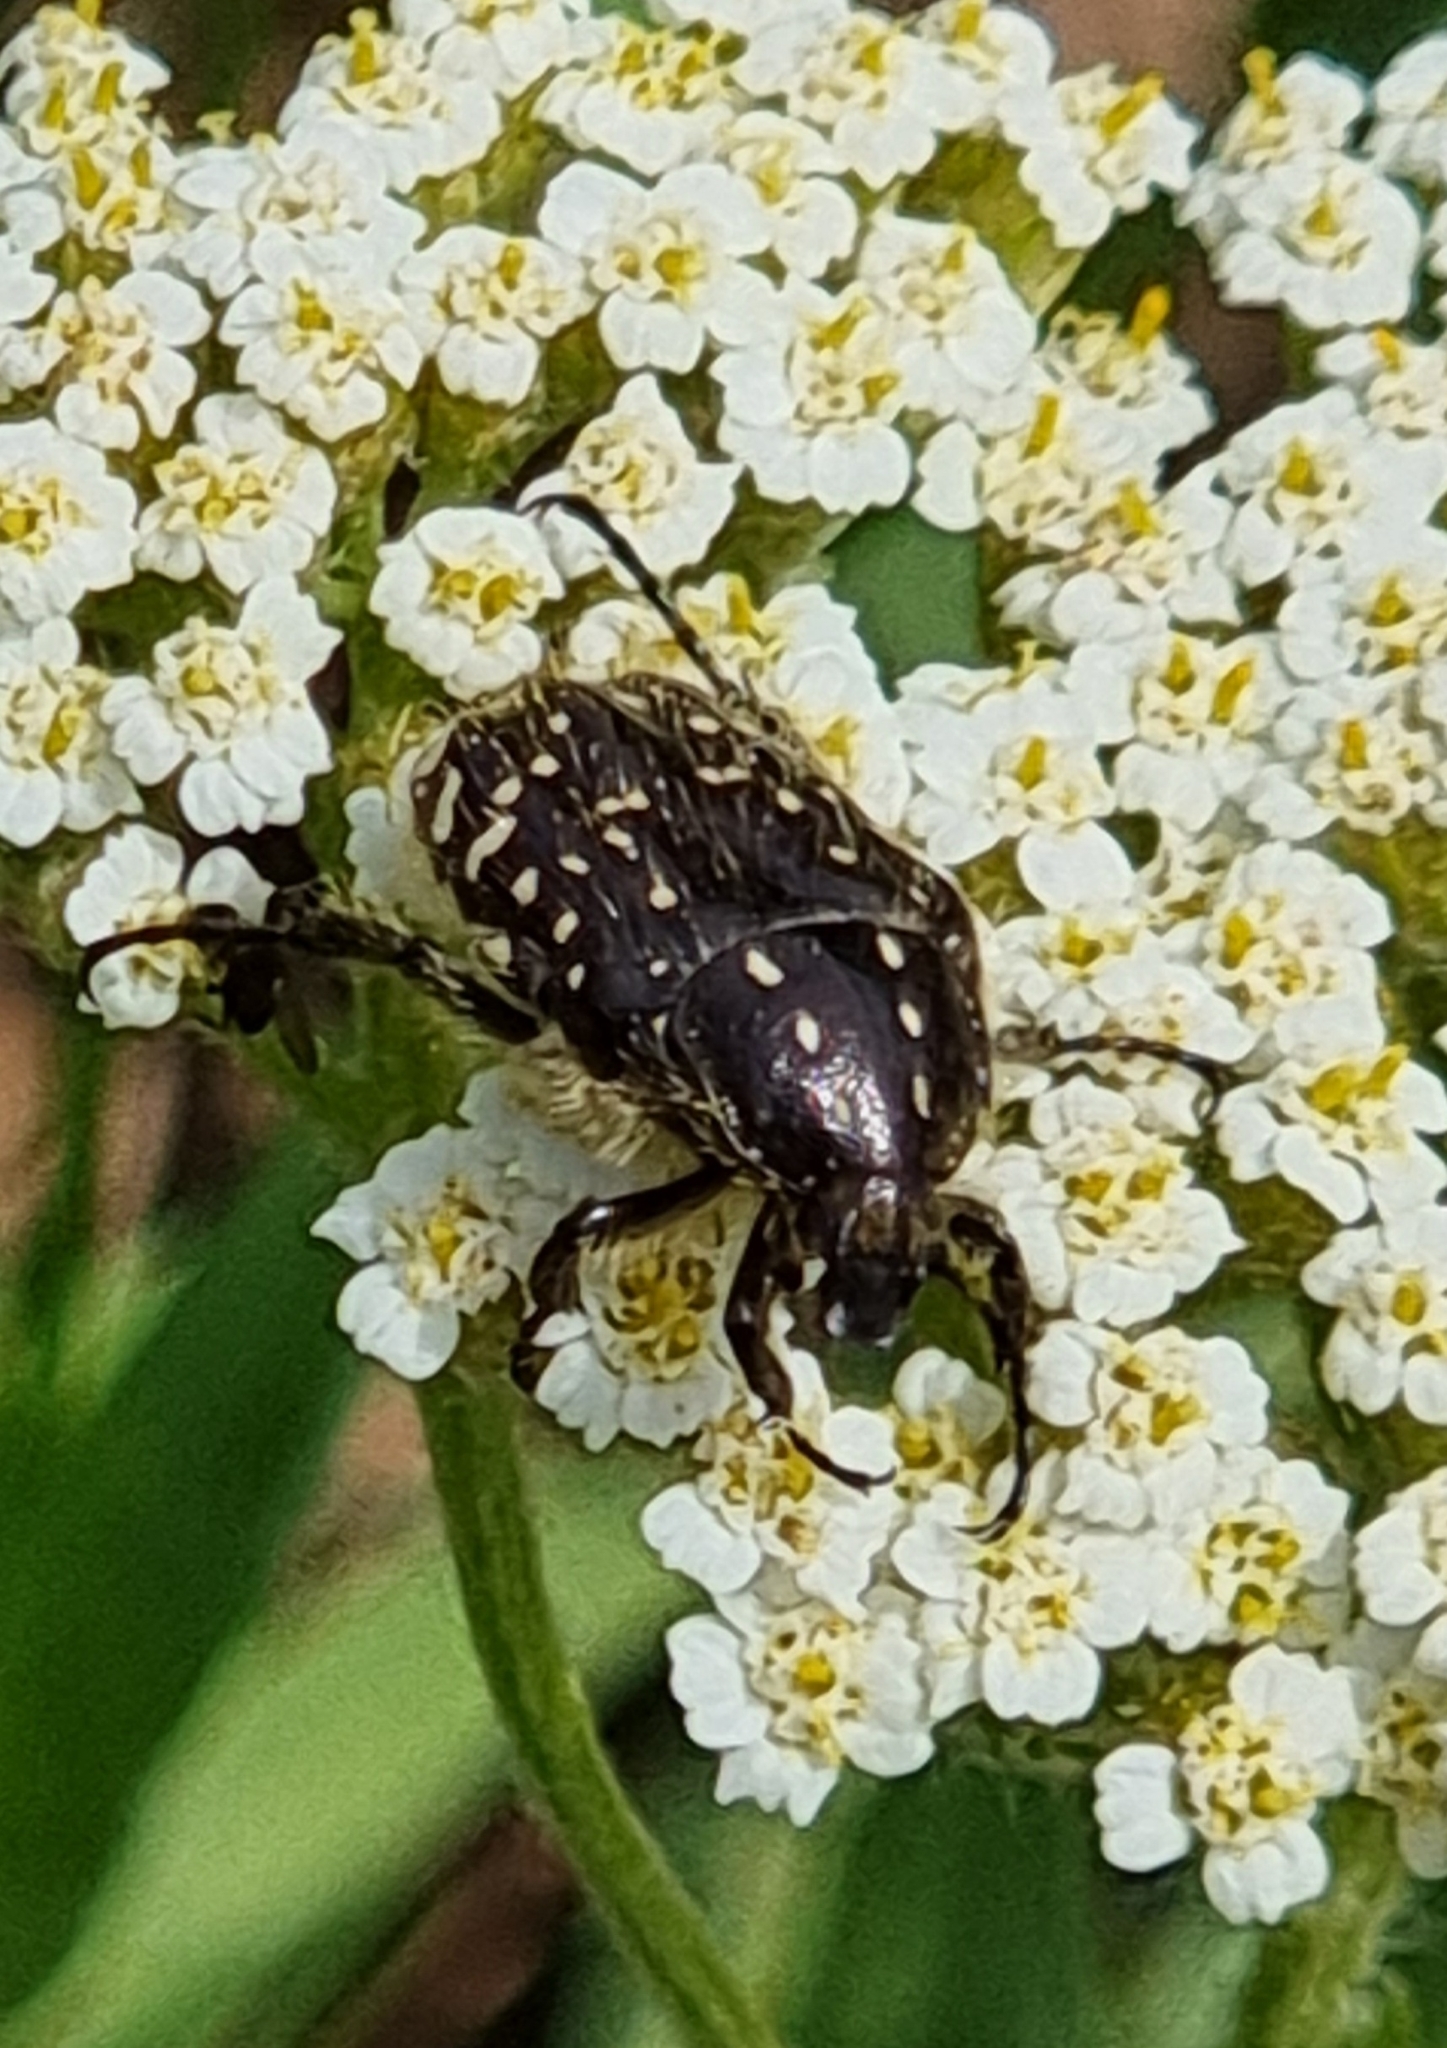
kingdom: Animalia
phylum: Arthropoda
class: Insecta
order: Coleoptera
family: Scarabaeidae
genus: Oxythyrea
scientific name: Oxythyrea funesta
